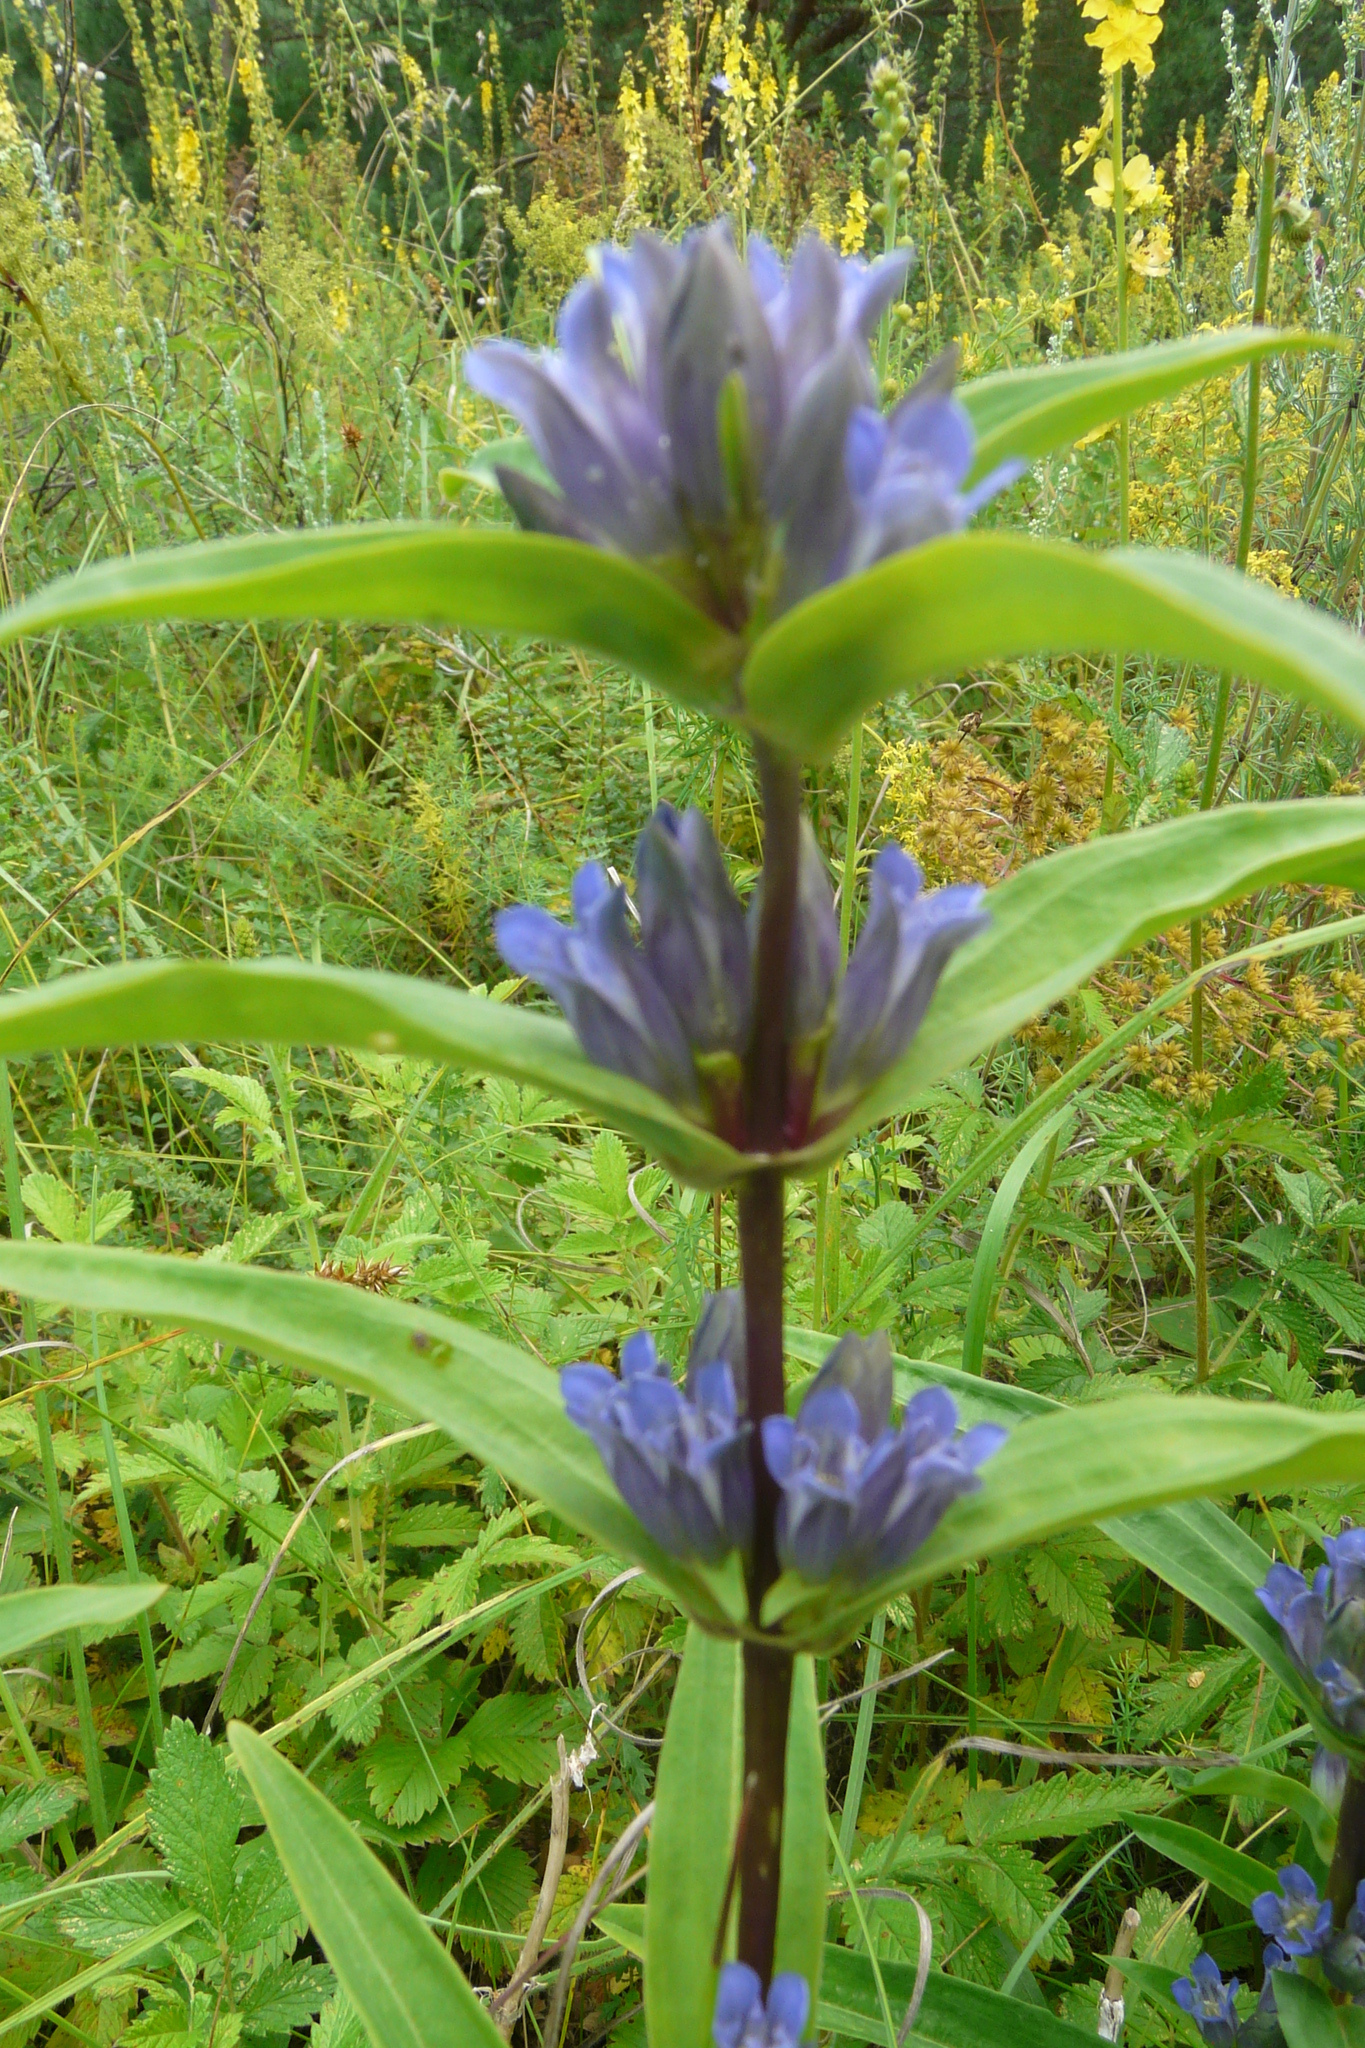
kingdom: Plantae
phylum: Tracheophyta
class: Magnoliopsida
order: Gentianales
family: Gentianaceae
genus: Gentiana
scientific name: Gentiana cruciata
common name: Cross gentian
